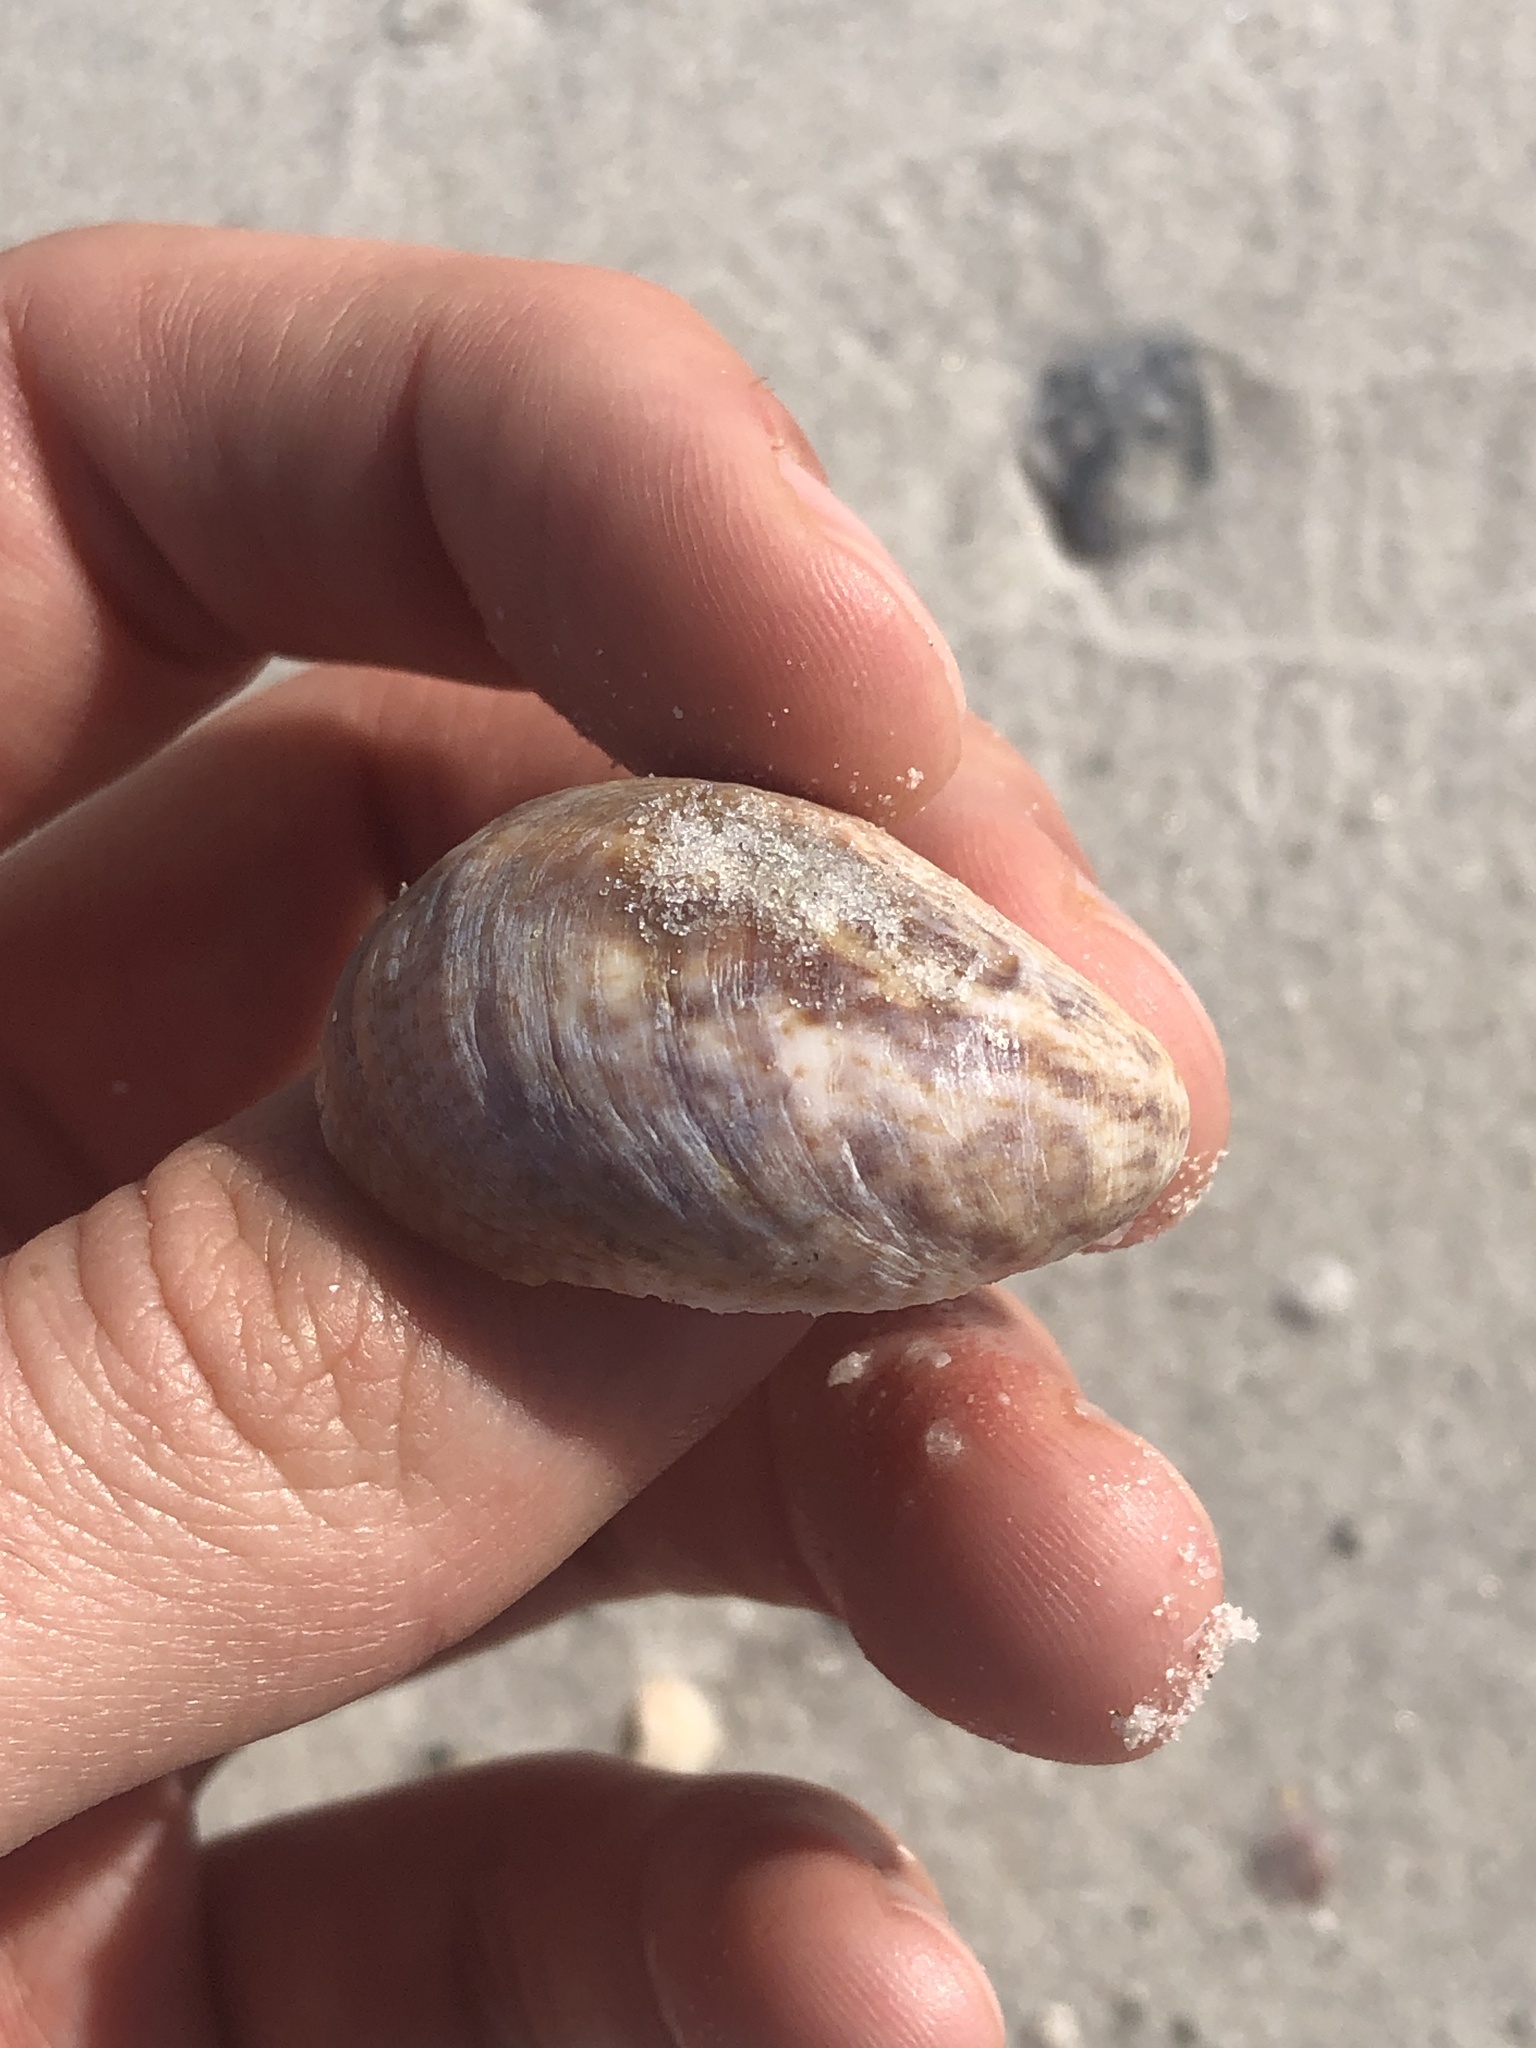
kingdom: Animalia
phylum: Mollusca
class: Gastropoda
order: Littorinimorpha
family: Calyptraeidae
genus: Crepidula
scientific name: Crepidula fornicata
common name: Slipper limpet
